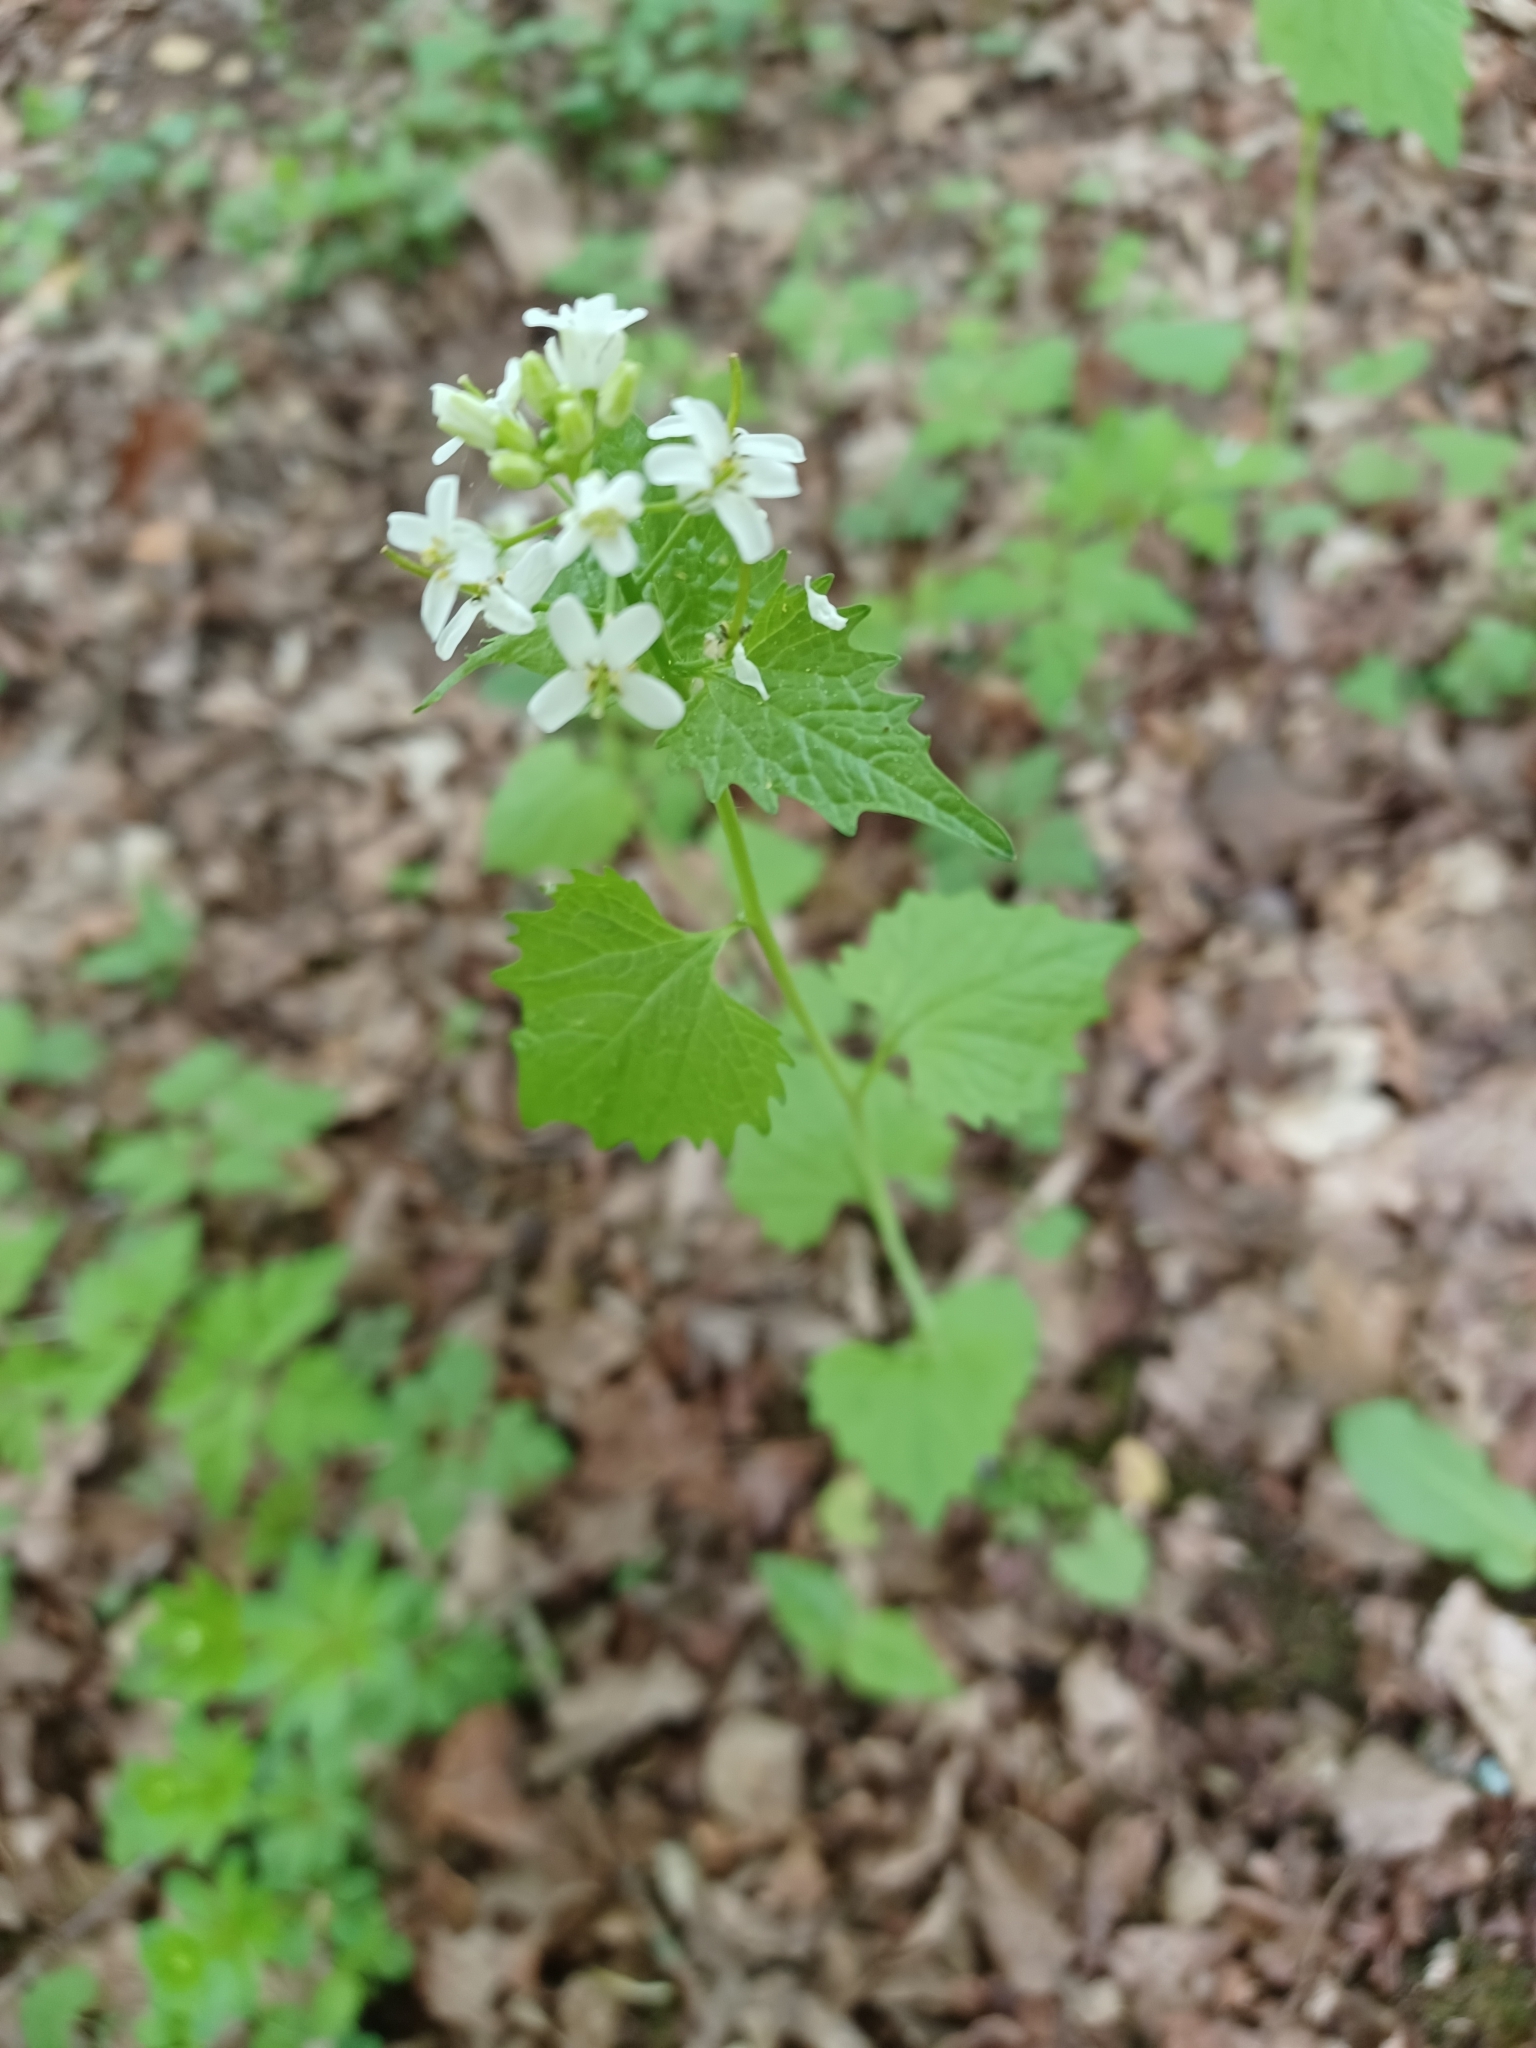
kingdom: Plantae
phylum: Tracheophyta
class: Magnoliopsida
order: Brassicales
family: Brassicaceae
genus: Alliaria
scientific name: Alliaria petiolata
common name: Garlic mustard
